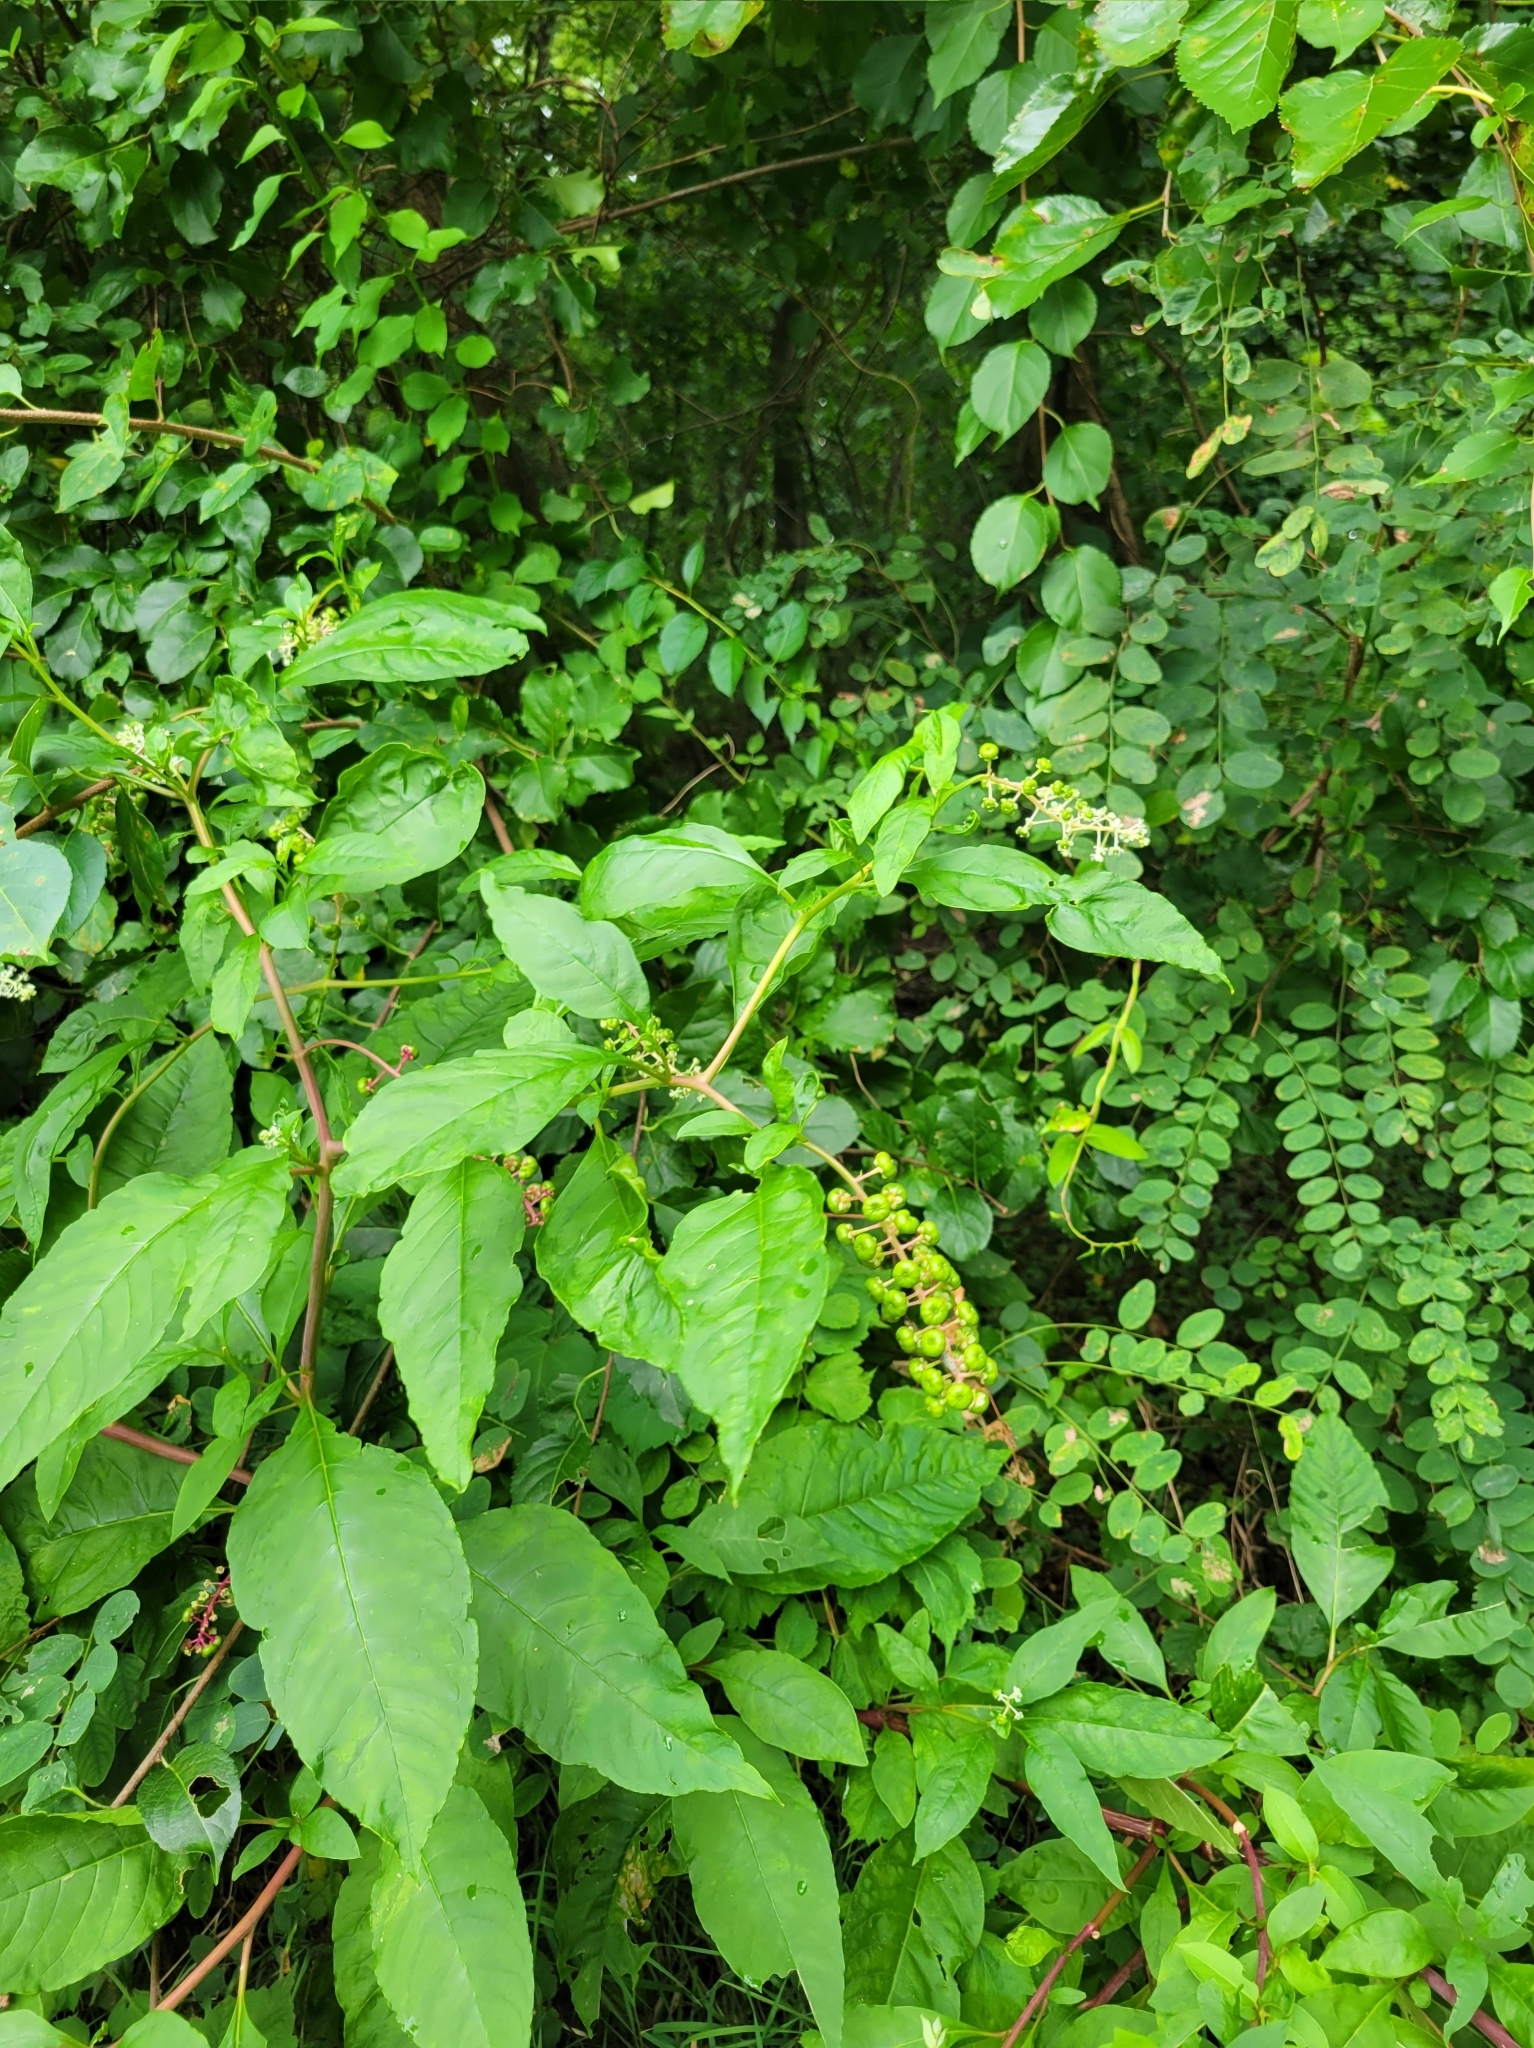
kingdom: Plantae
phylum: Tracheophyta
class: Magnoliopsida
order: Caryophyllales
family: Phytolaccaceae
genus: Phytolacca
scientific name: Phytolacca americana
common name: American pokeweed
